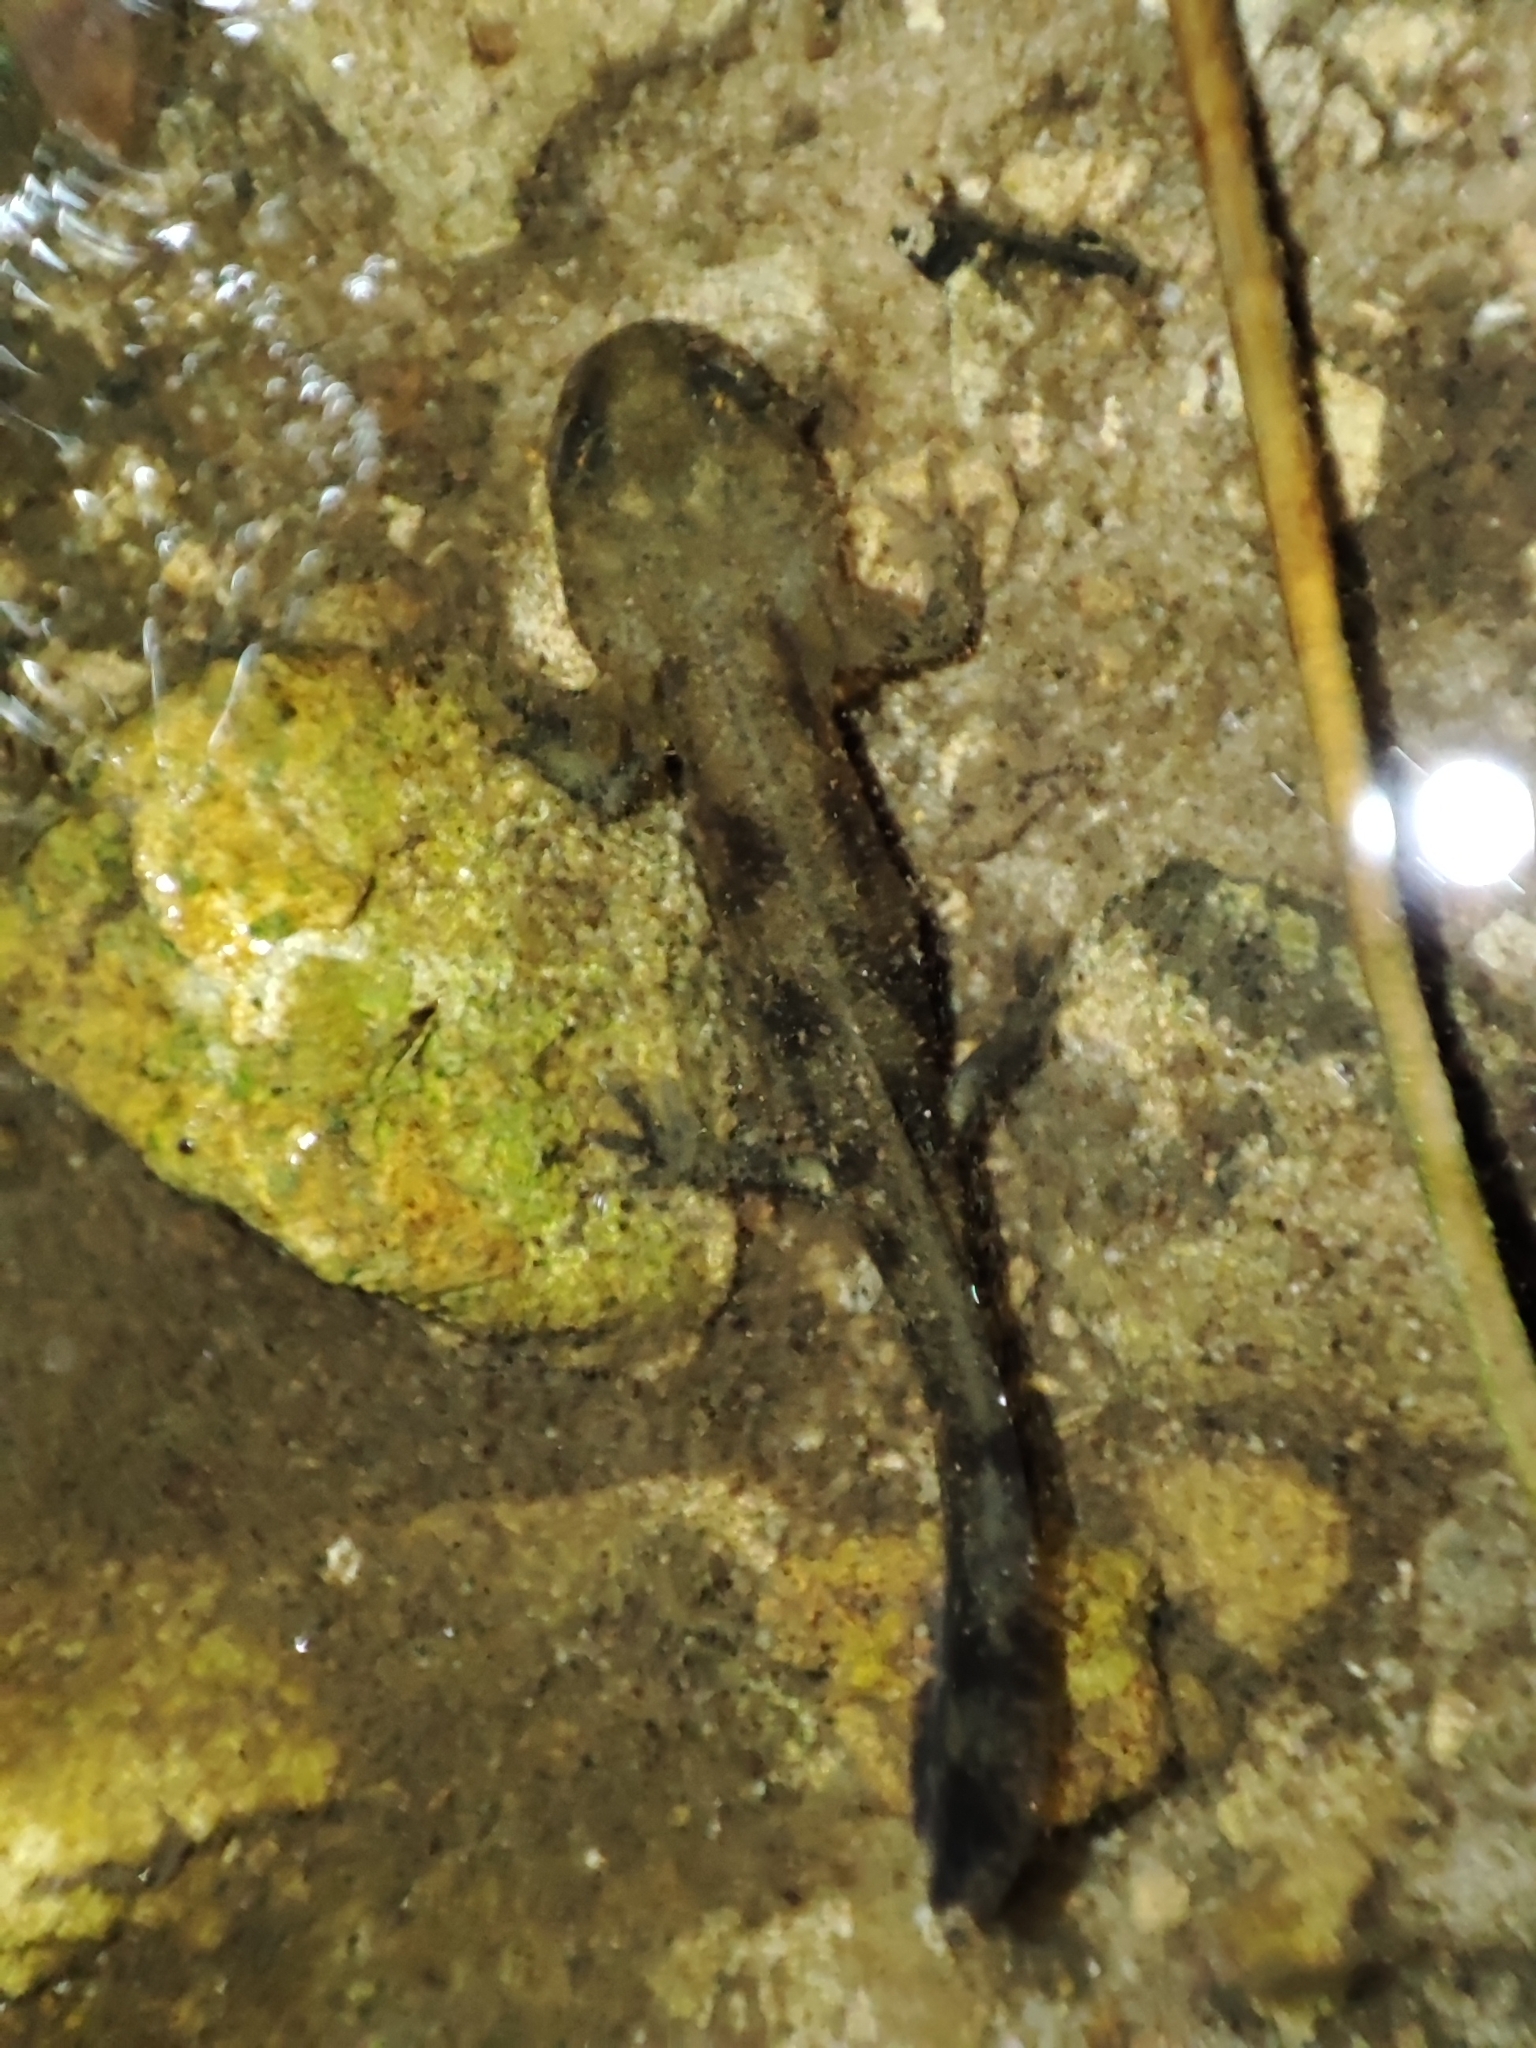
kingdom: Animalia
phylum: Chordata
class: Amphibia
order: Caudata
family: Salamandridae
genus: Salamandra
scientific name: Salamandra salamandra
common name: Fire salamander
